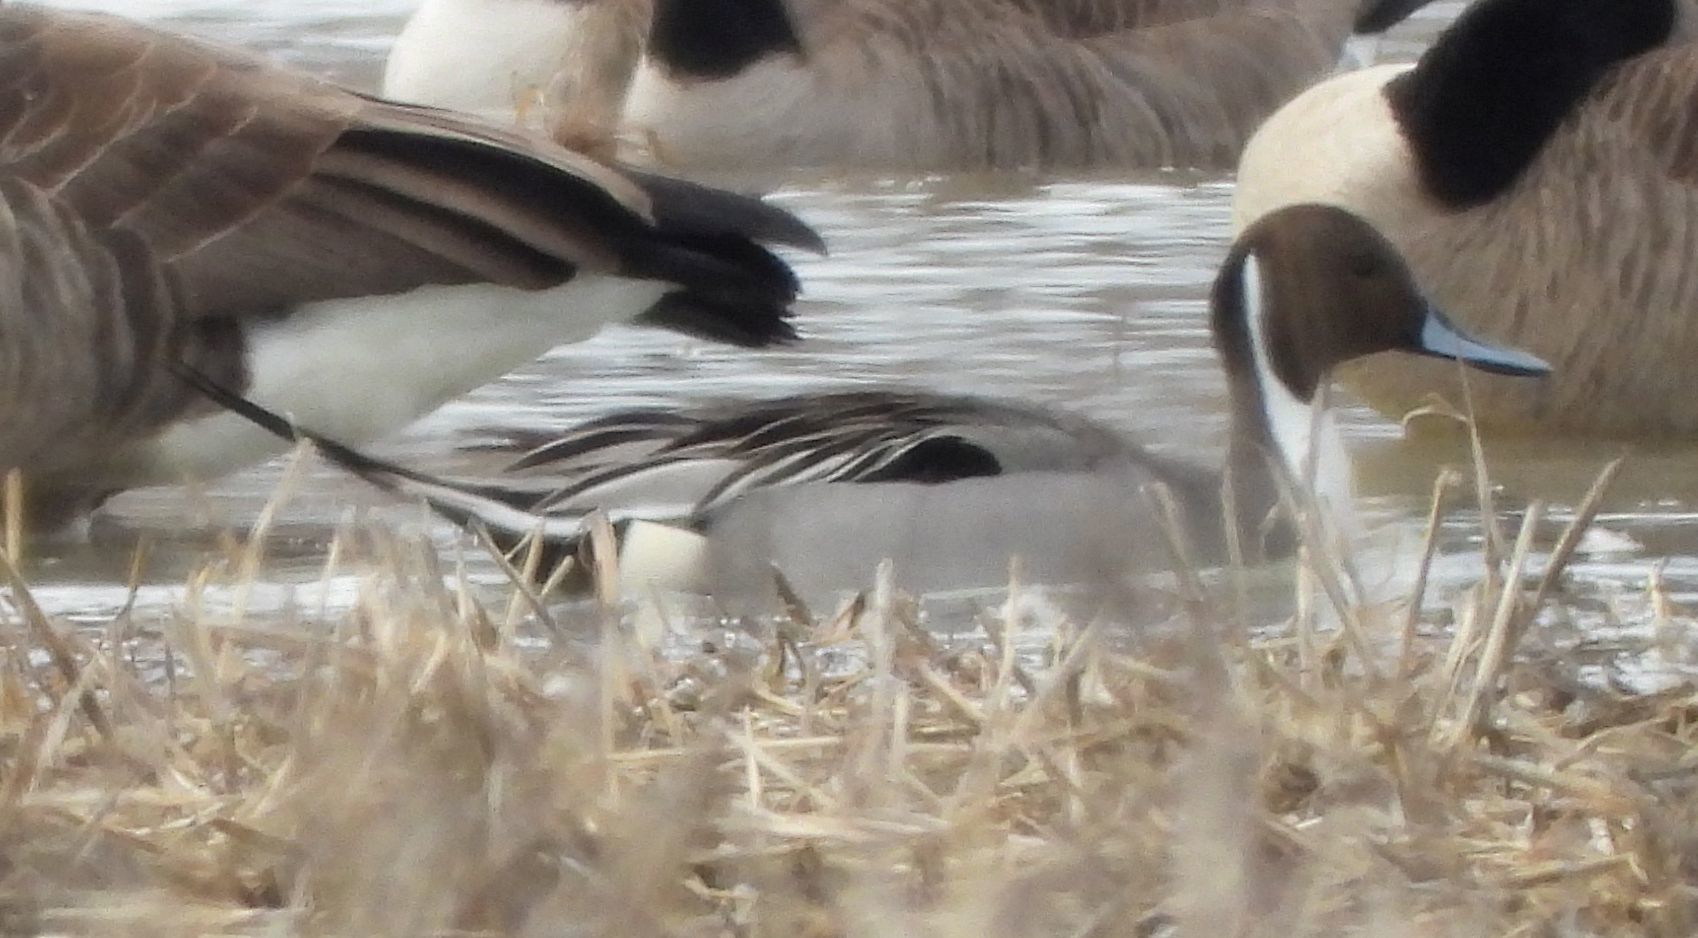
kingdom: Animalia
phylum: Chordata
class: Aves
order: Anseriformes
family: Anatidae
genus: Anas
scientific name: Anas acuta
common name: Northern pintail
